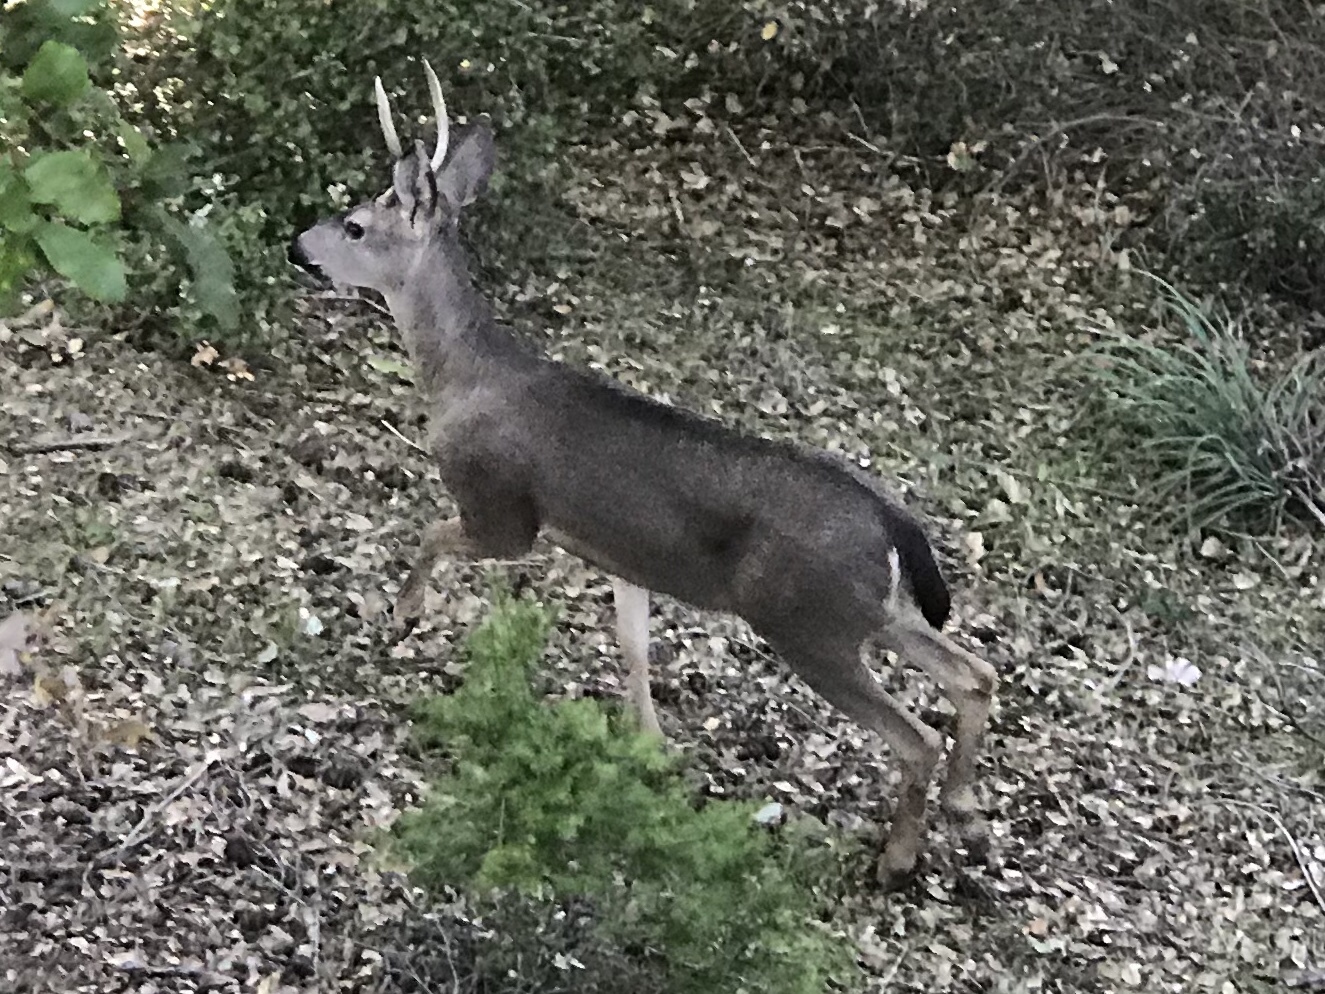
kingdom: Animalia
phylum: Chordata
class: Mammalia
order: Artiodactyla
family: Cervidae
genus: Odocoileus
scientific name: Odocoileus hemionus
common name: Mule deer
